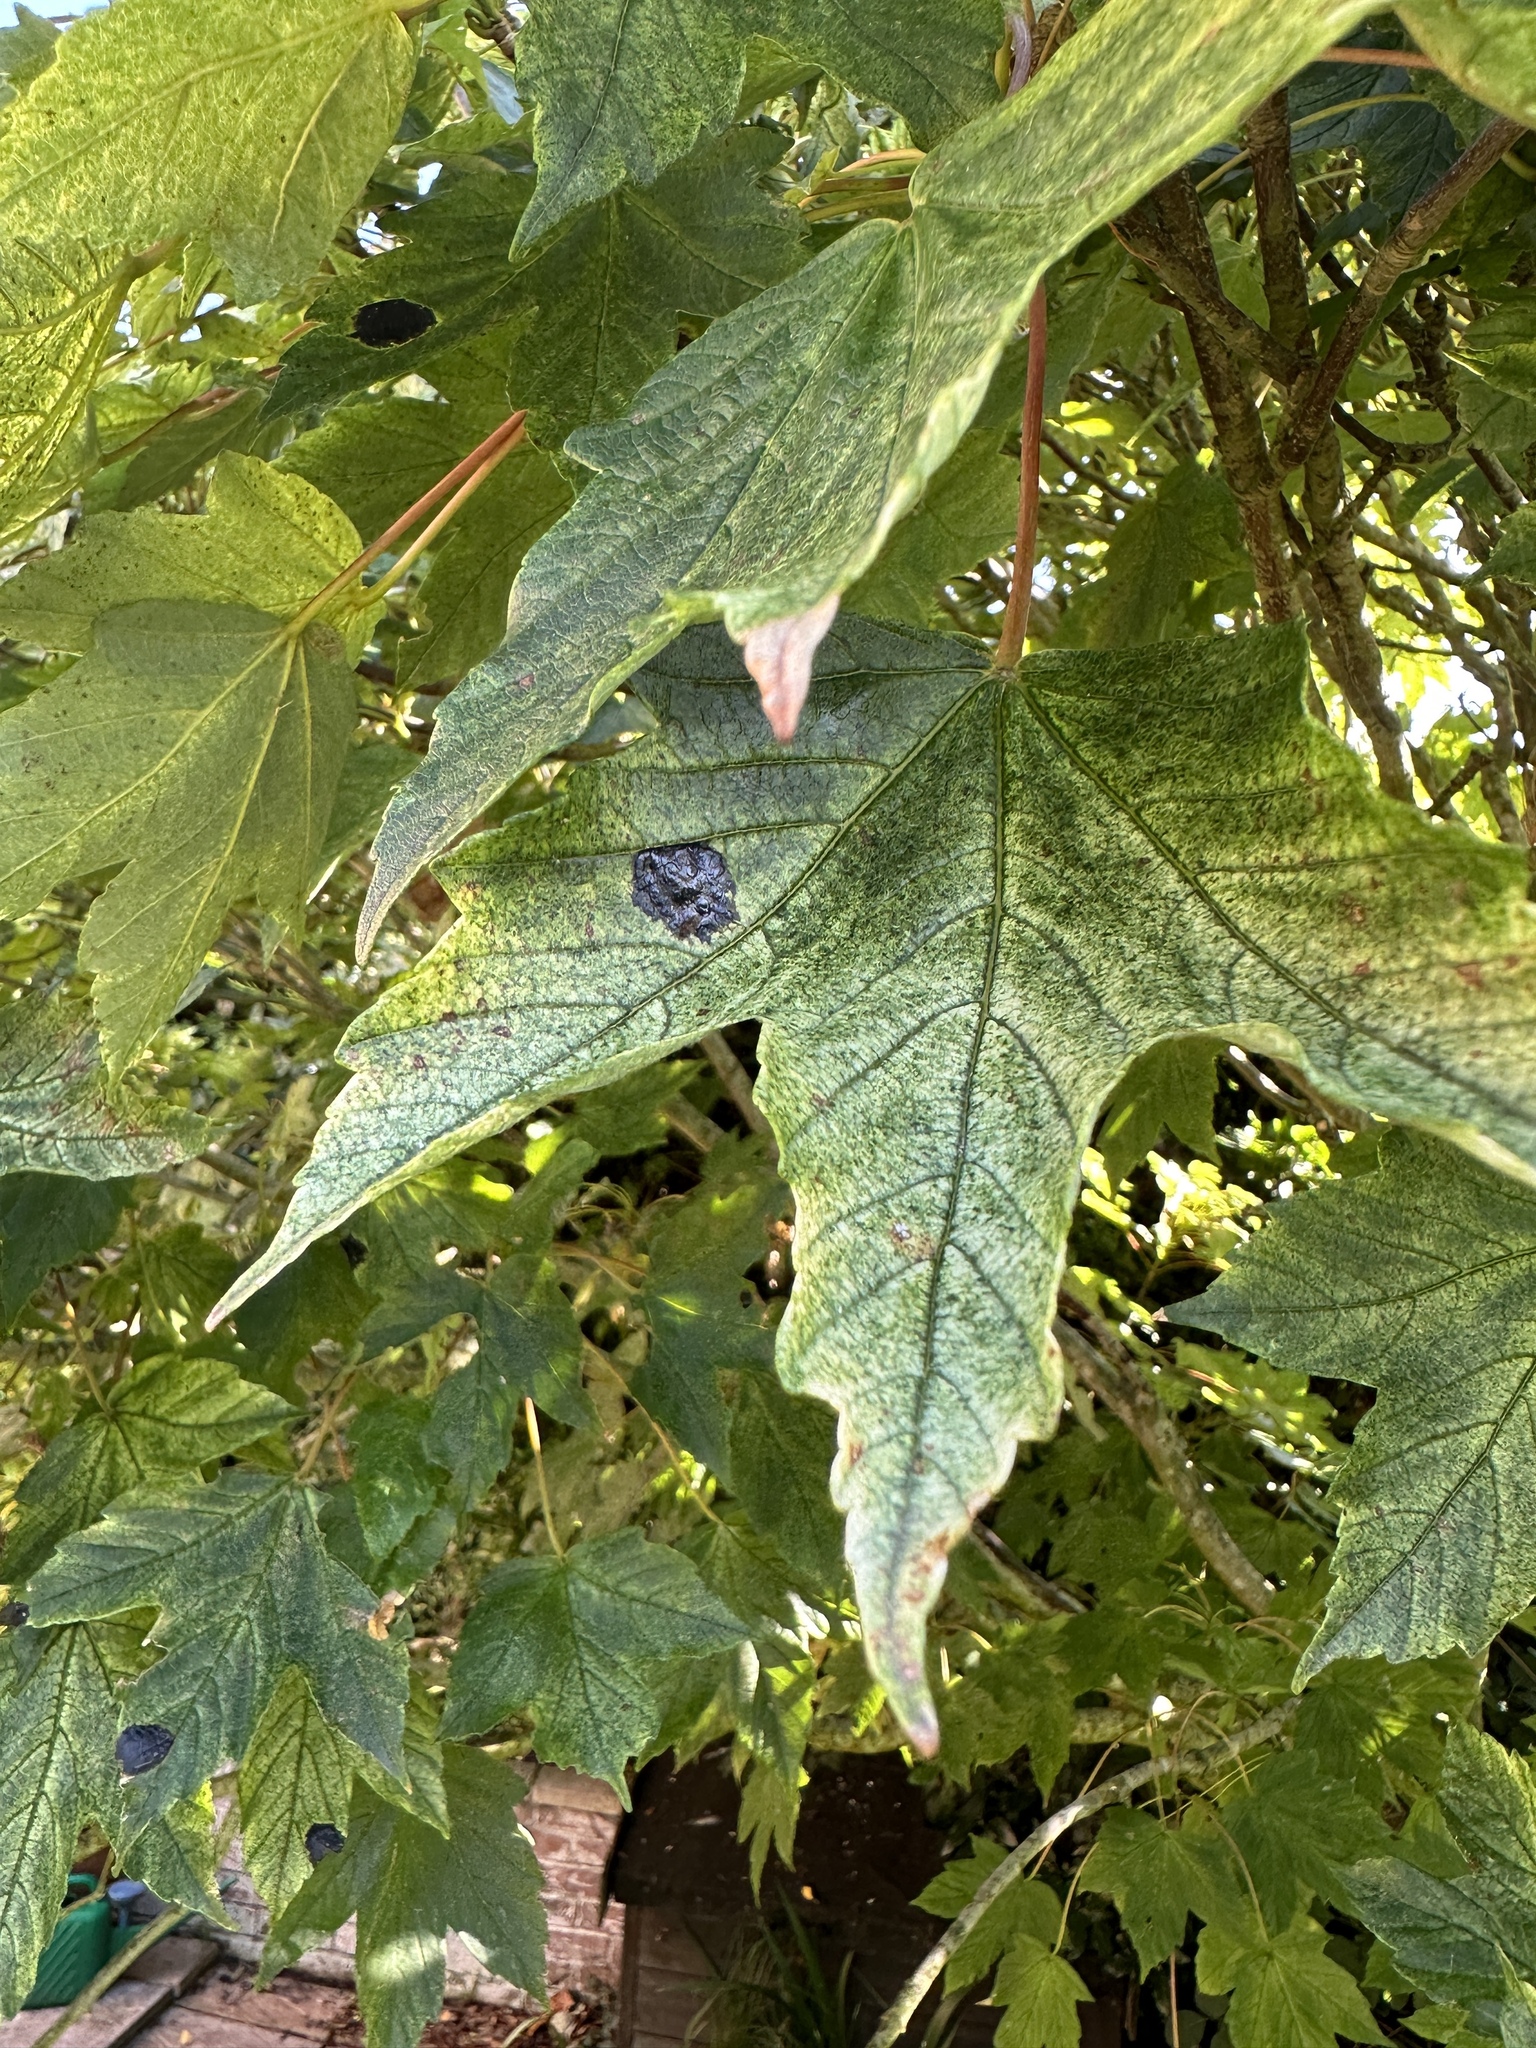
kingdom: Fungi
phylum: Ascomycota
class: Leotiomycetes
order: Rhytismatales
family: Rhytismataceae
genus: Rhytisma
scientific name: Rhytisma acerinum
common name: European tar spot
